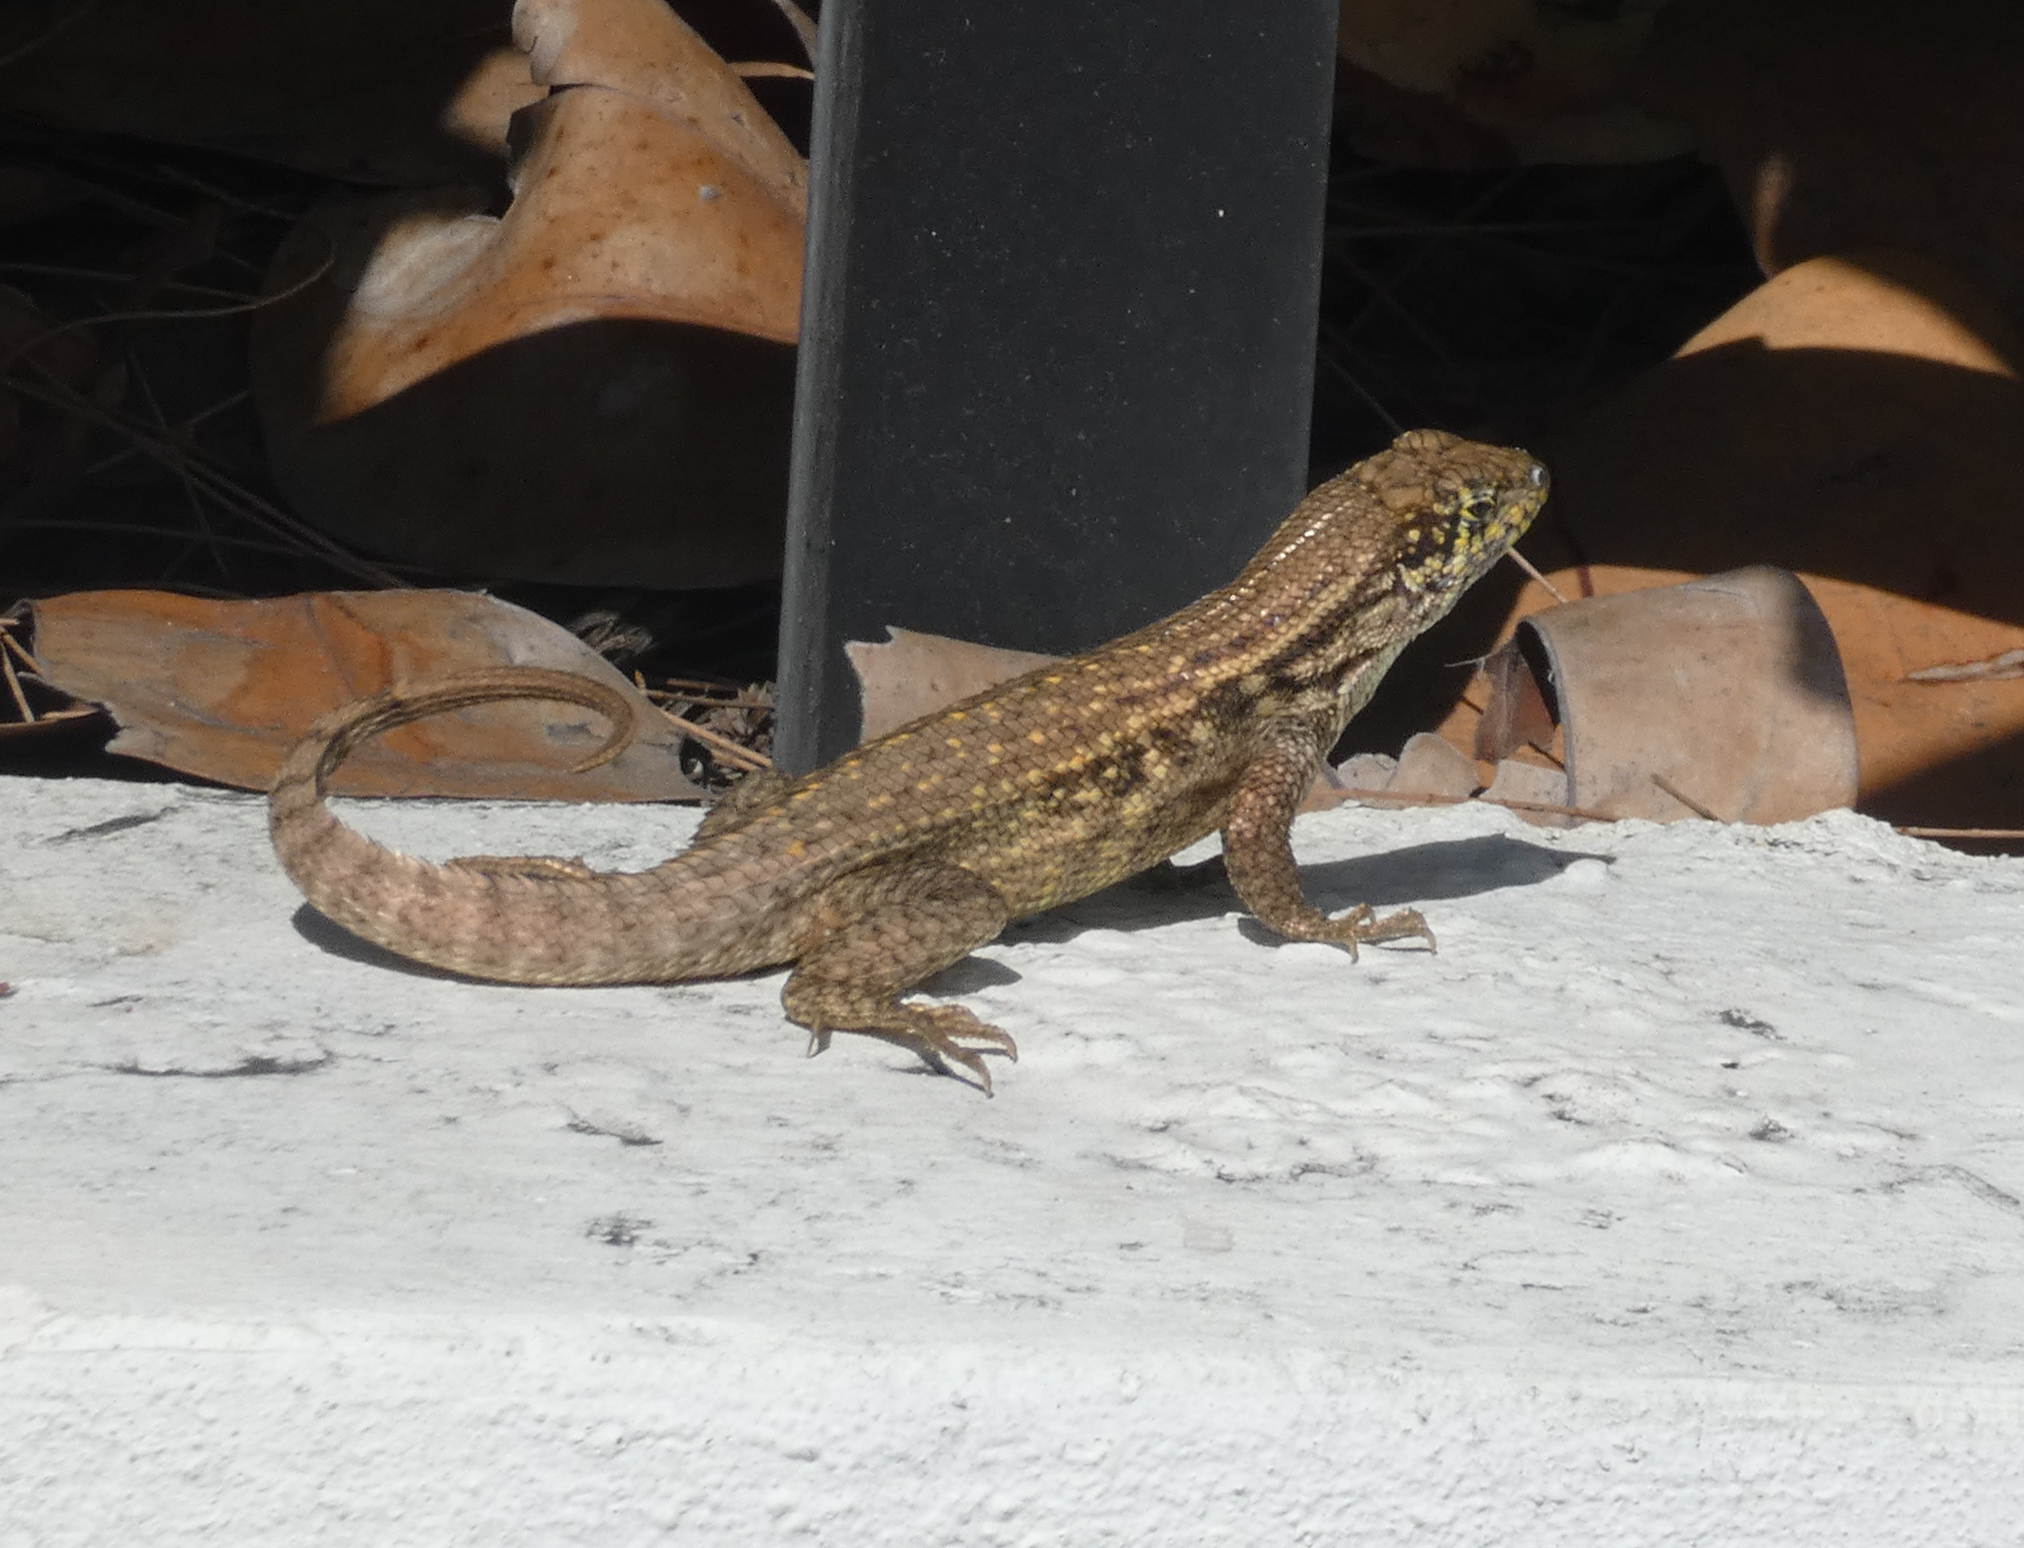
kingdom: Animalia
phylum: Chordata
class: Squamata
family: Leiocephalidae
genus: Leiocephalus
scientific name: Leiocephalus carinatus
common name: Northern curly-tailed lizard
